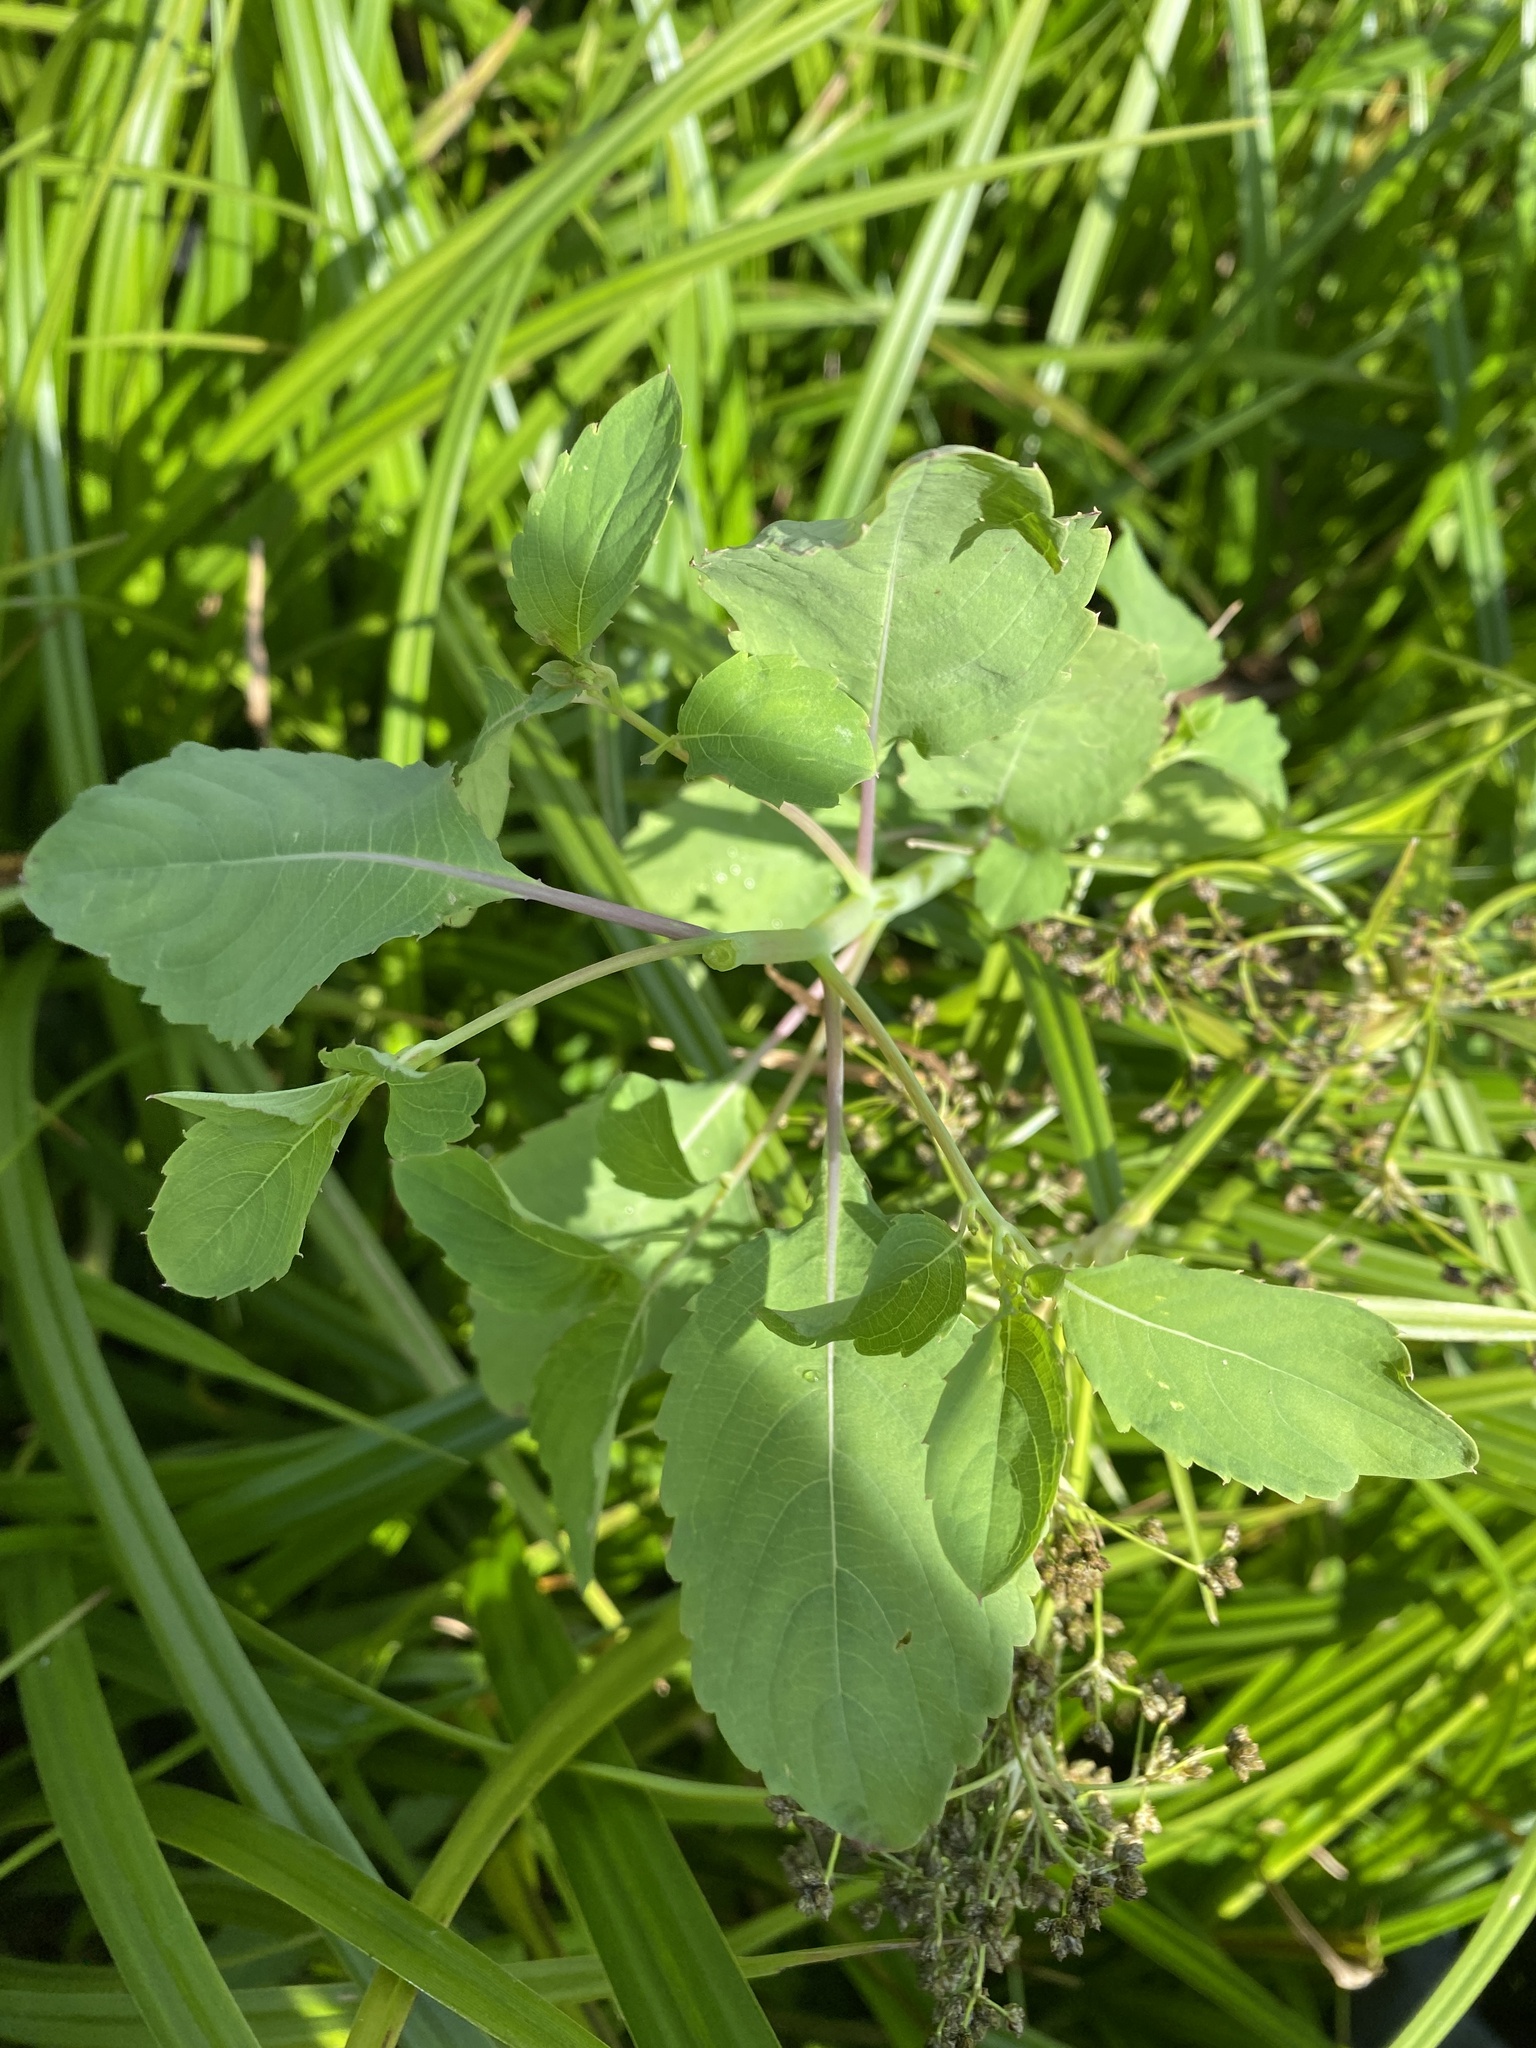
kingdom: Plantae
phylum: Tracheophyta
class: Magnoliopsida
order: Ericales
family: Balsaminaceae
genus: Impatiens
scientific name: Impatiens noli-tangere
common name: Touch-me-not balsam
